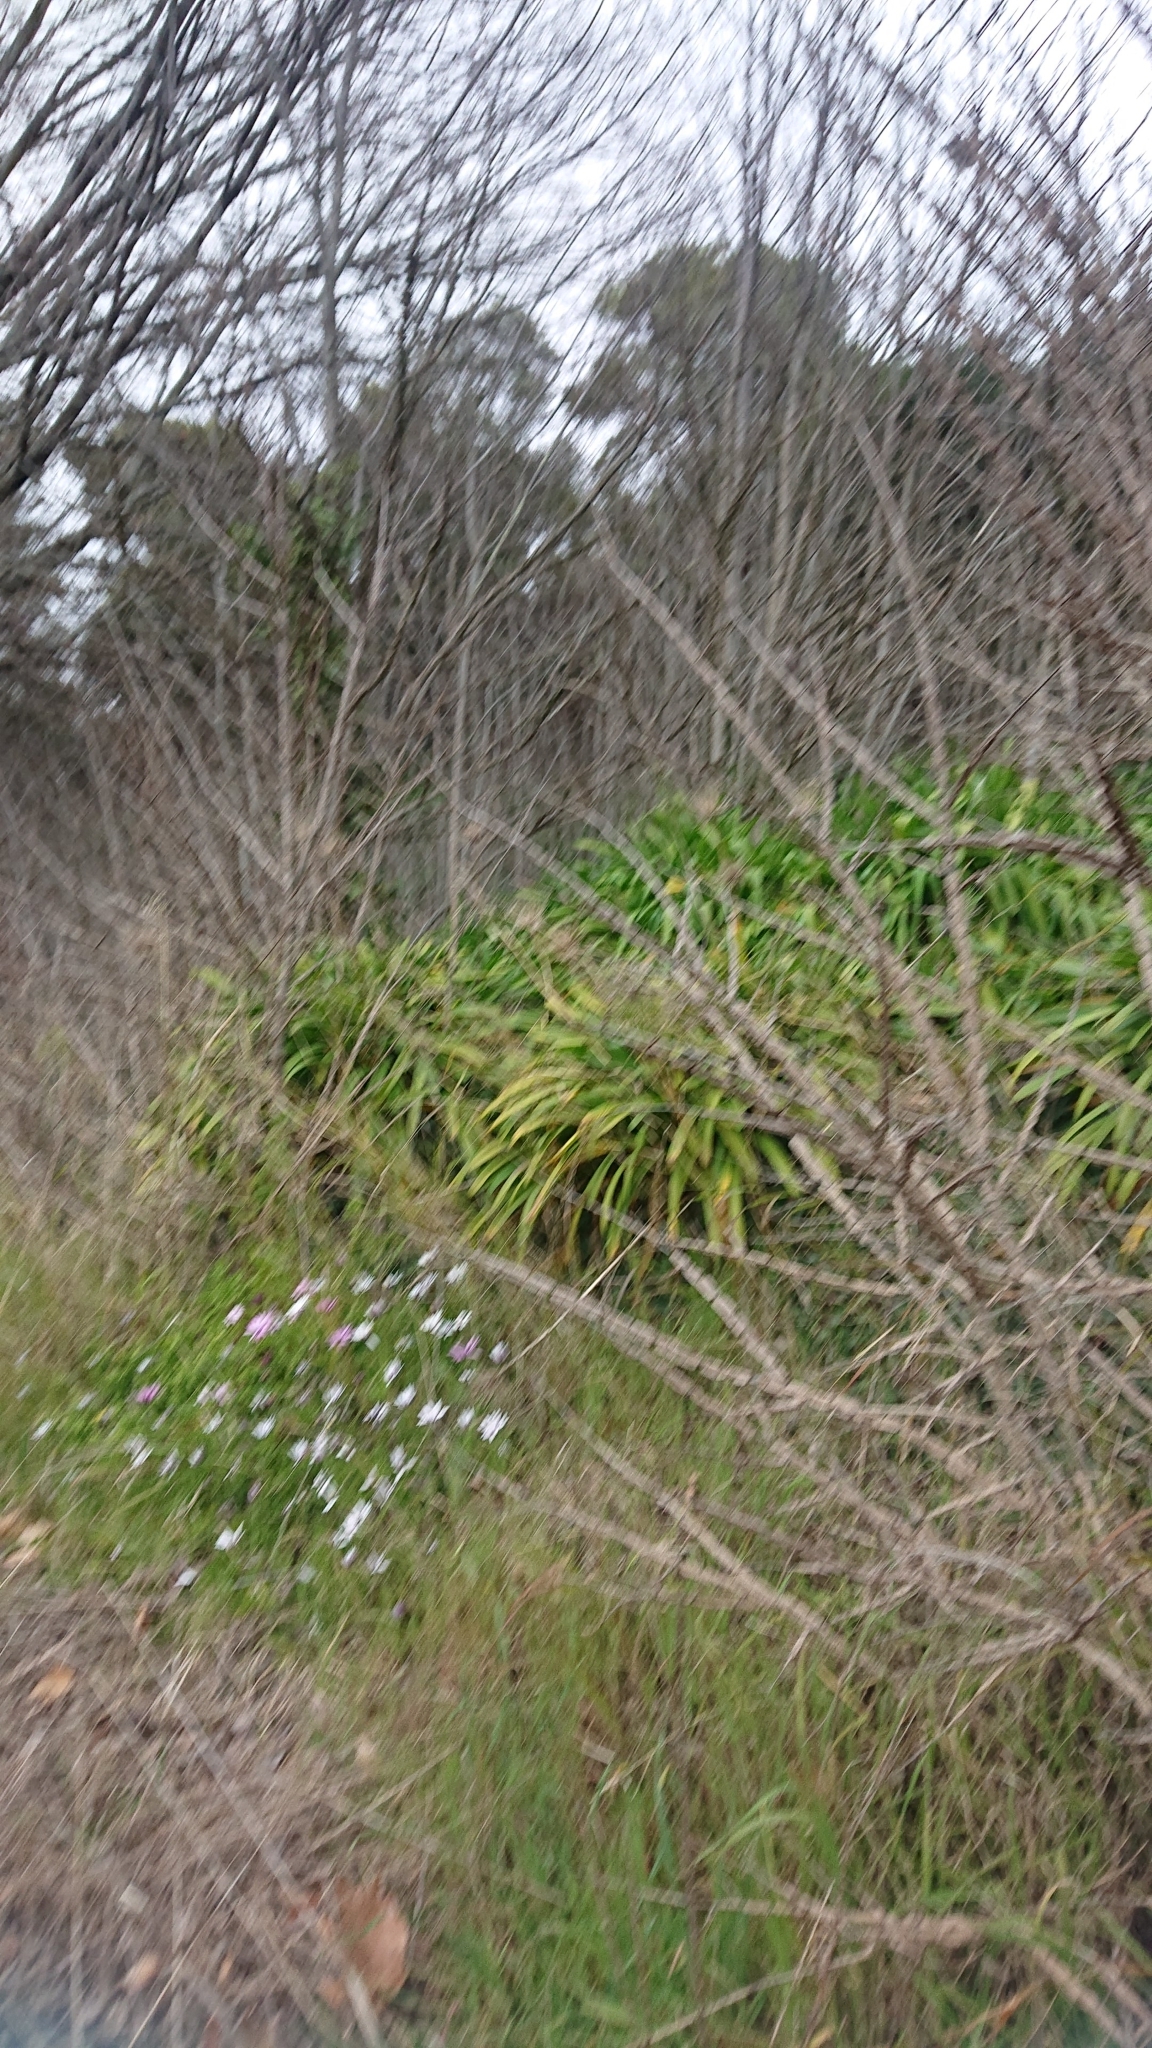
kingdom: Plantae
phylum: Tracheophyta
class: Magnoliopsida
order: Rosales
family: Ulmaceae
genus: Ulmus
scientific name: Ulmus hollandica
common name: Dutch elm
